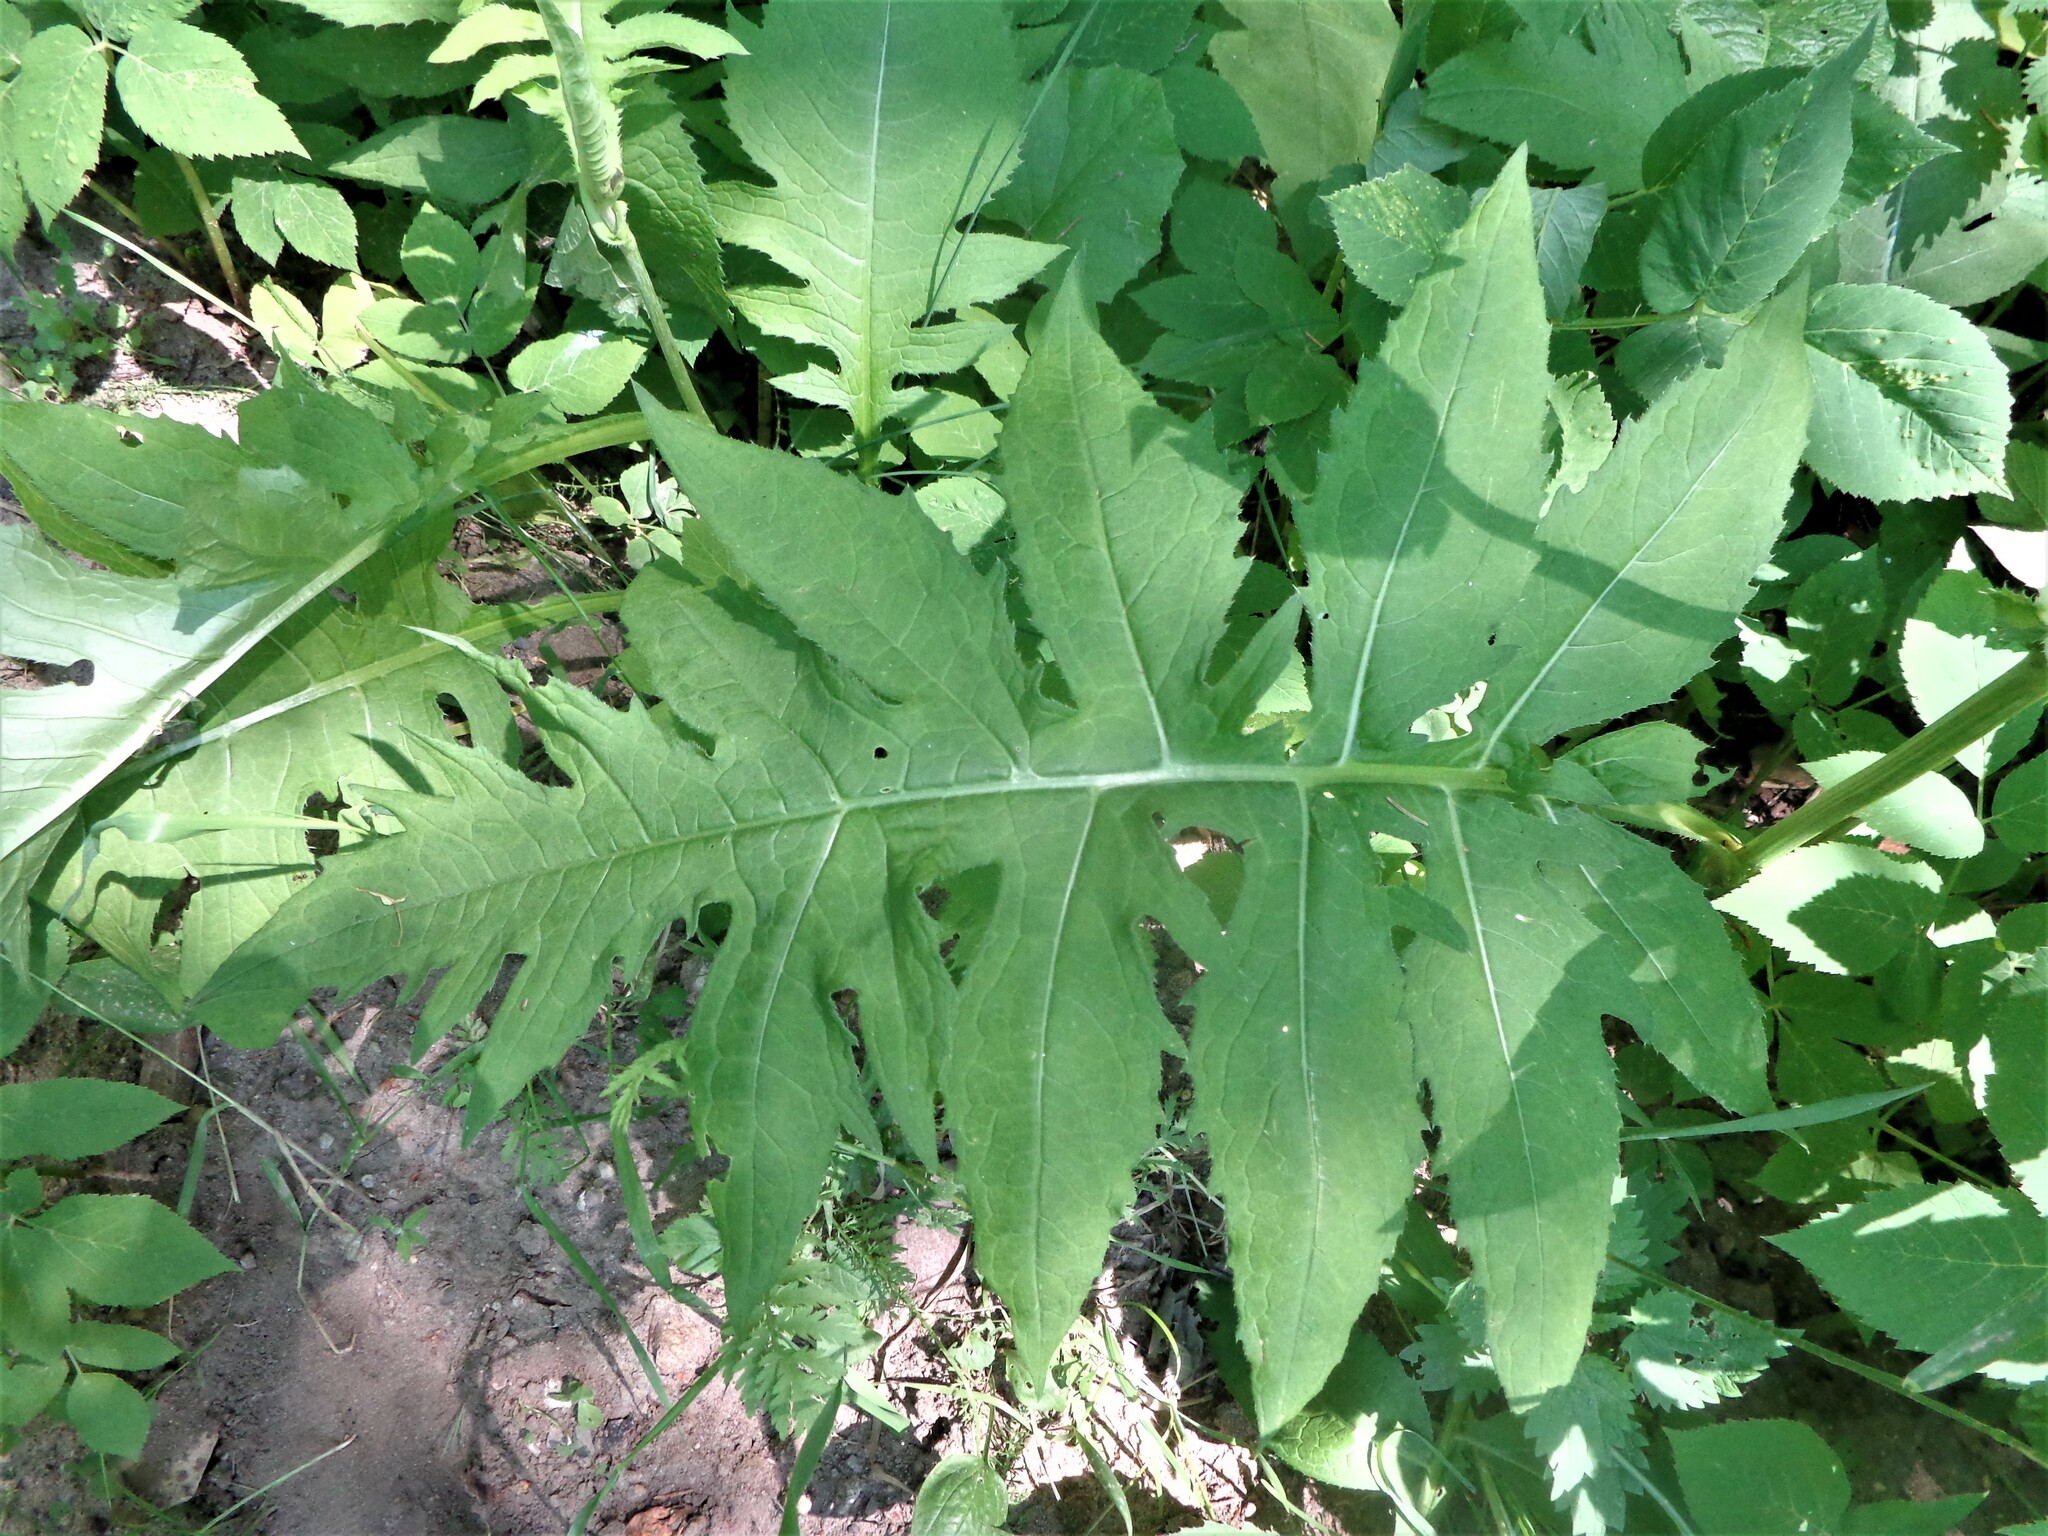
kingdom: Plantae
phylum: Tracheophyta
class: Magnoliopsida
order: Asterales
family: Asteraceae
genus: Cirsium
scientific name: Cirsium oleraceum
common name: Cabbage thistle
